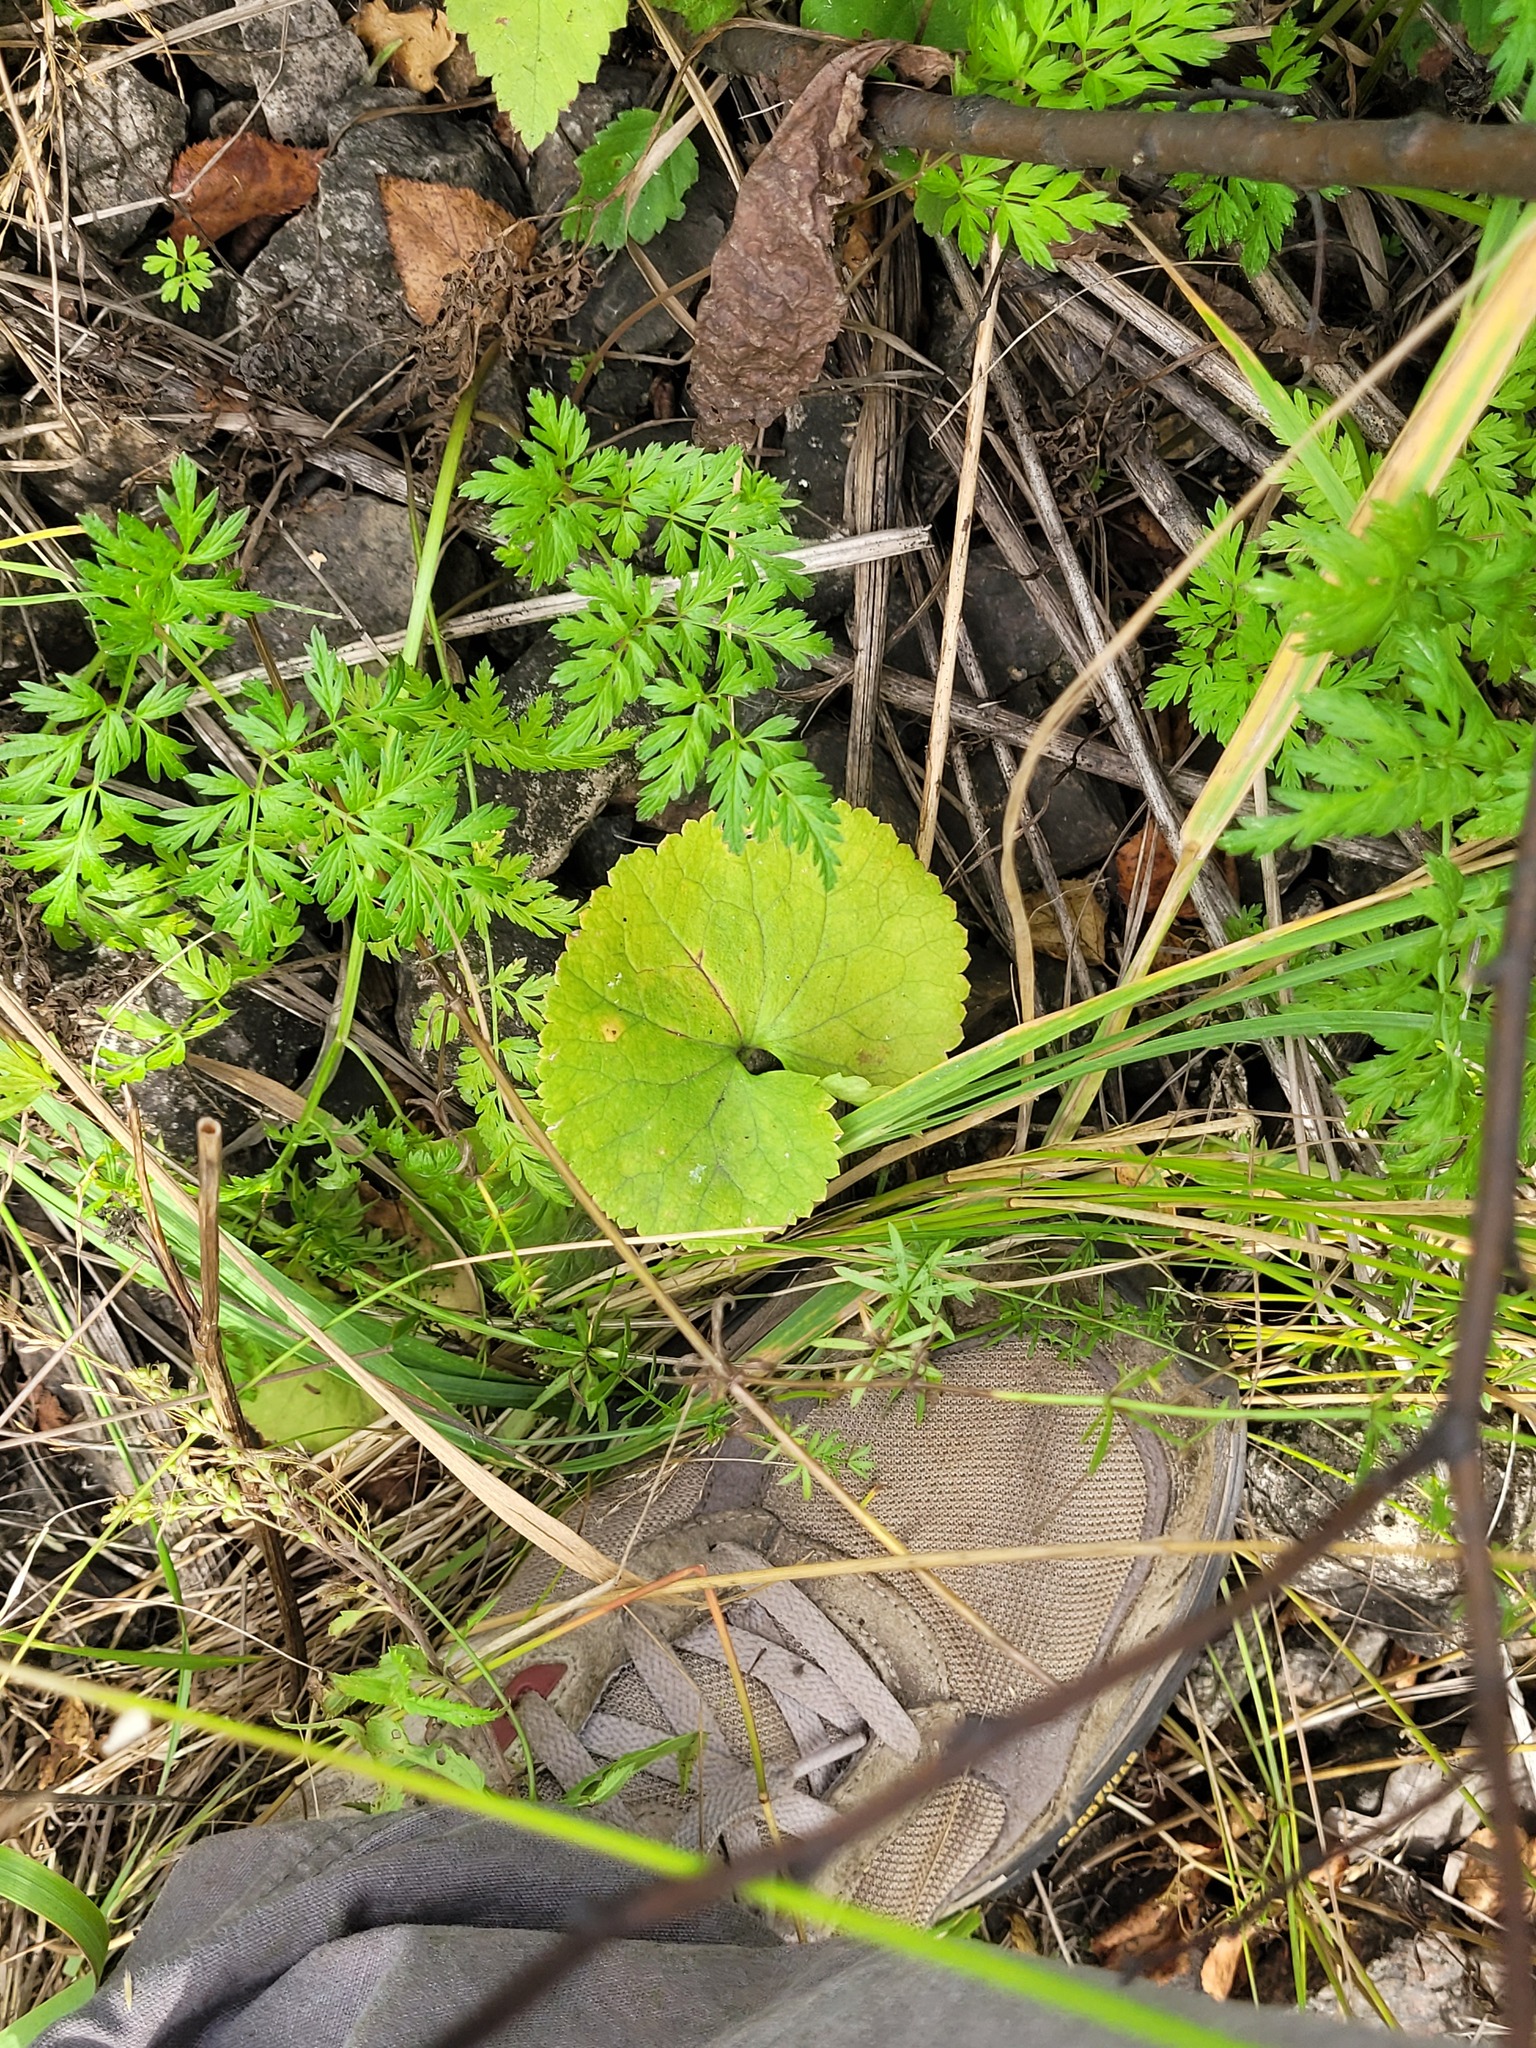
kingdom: Plantae
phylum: Tracheophyta
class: Magnoliopsida
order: Ranunculales
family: Ranunculaceae
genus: Ranunculus
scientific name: Ranunculus cassubicus
